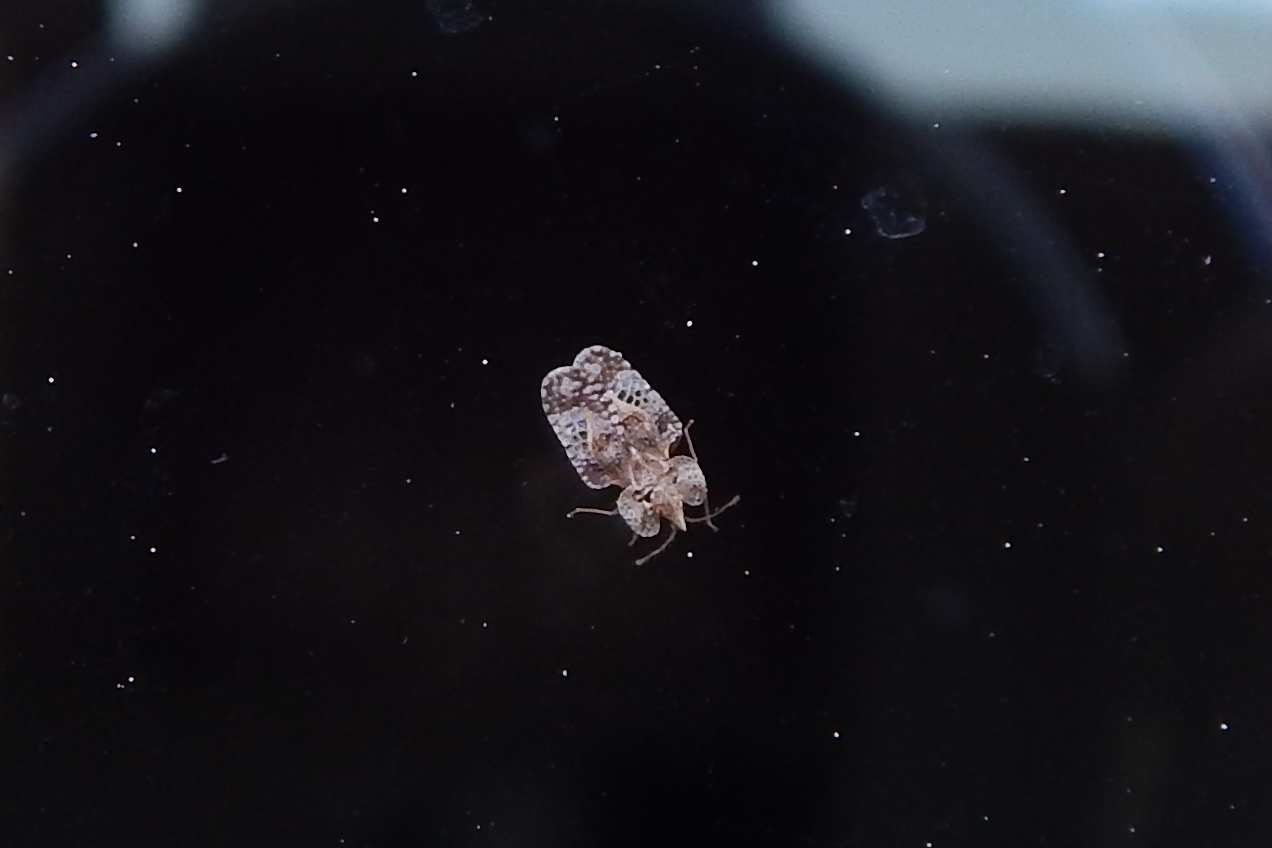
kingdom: Animalia
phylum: Arthropoda
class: Insecta
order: Hemiptera
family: Tingidae
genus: Corythucha
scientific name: Corythucha marmorata
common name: Chrysanthemum lace bug
